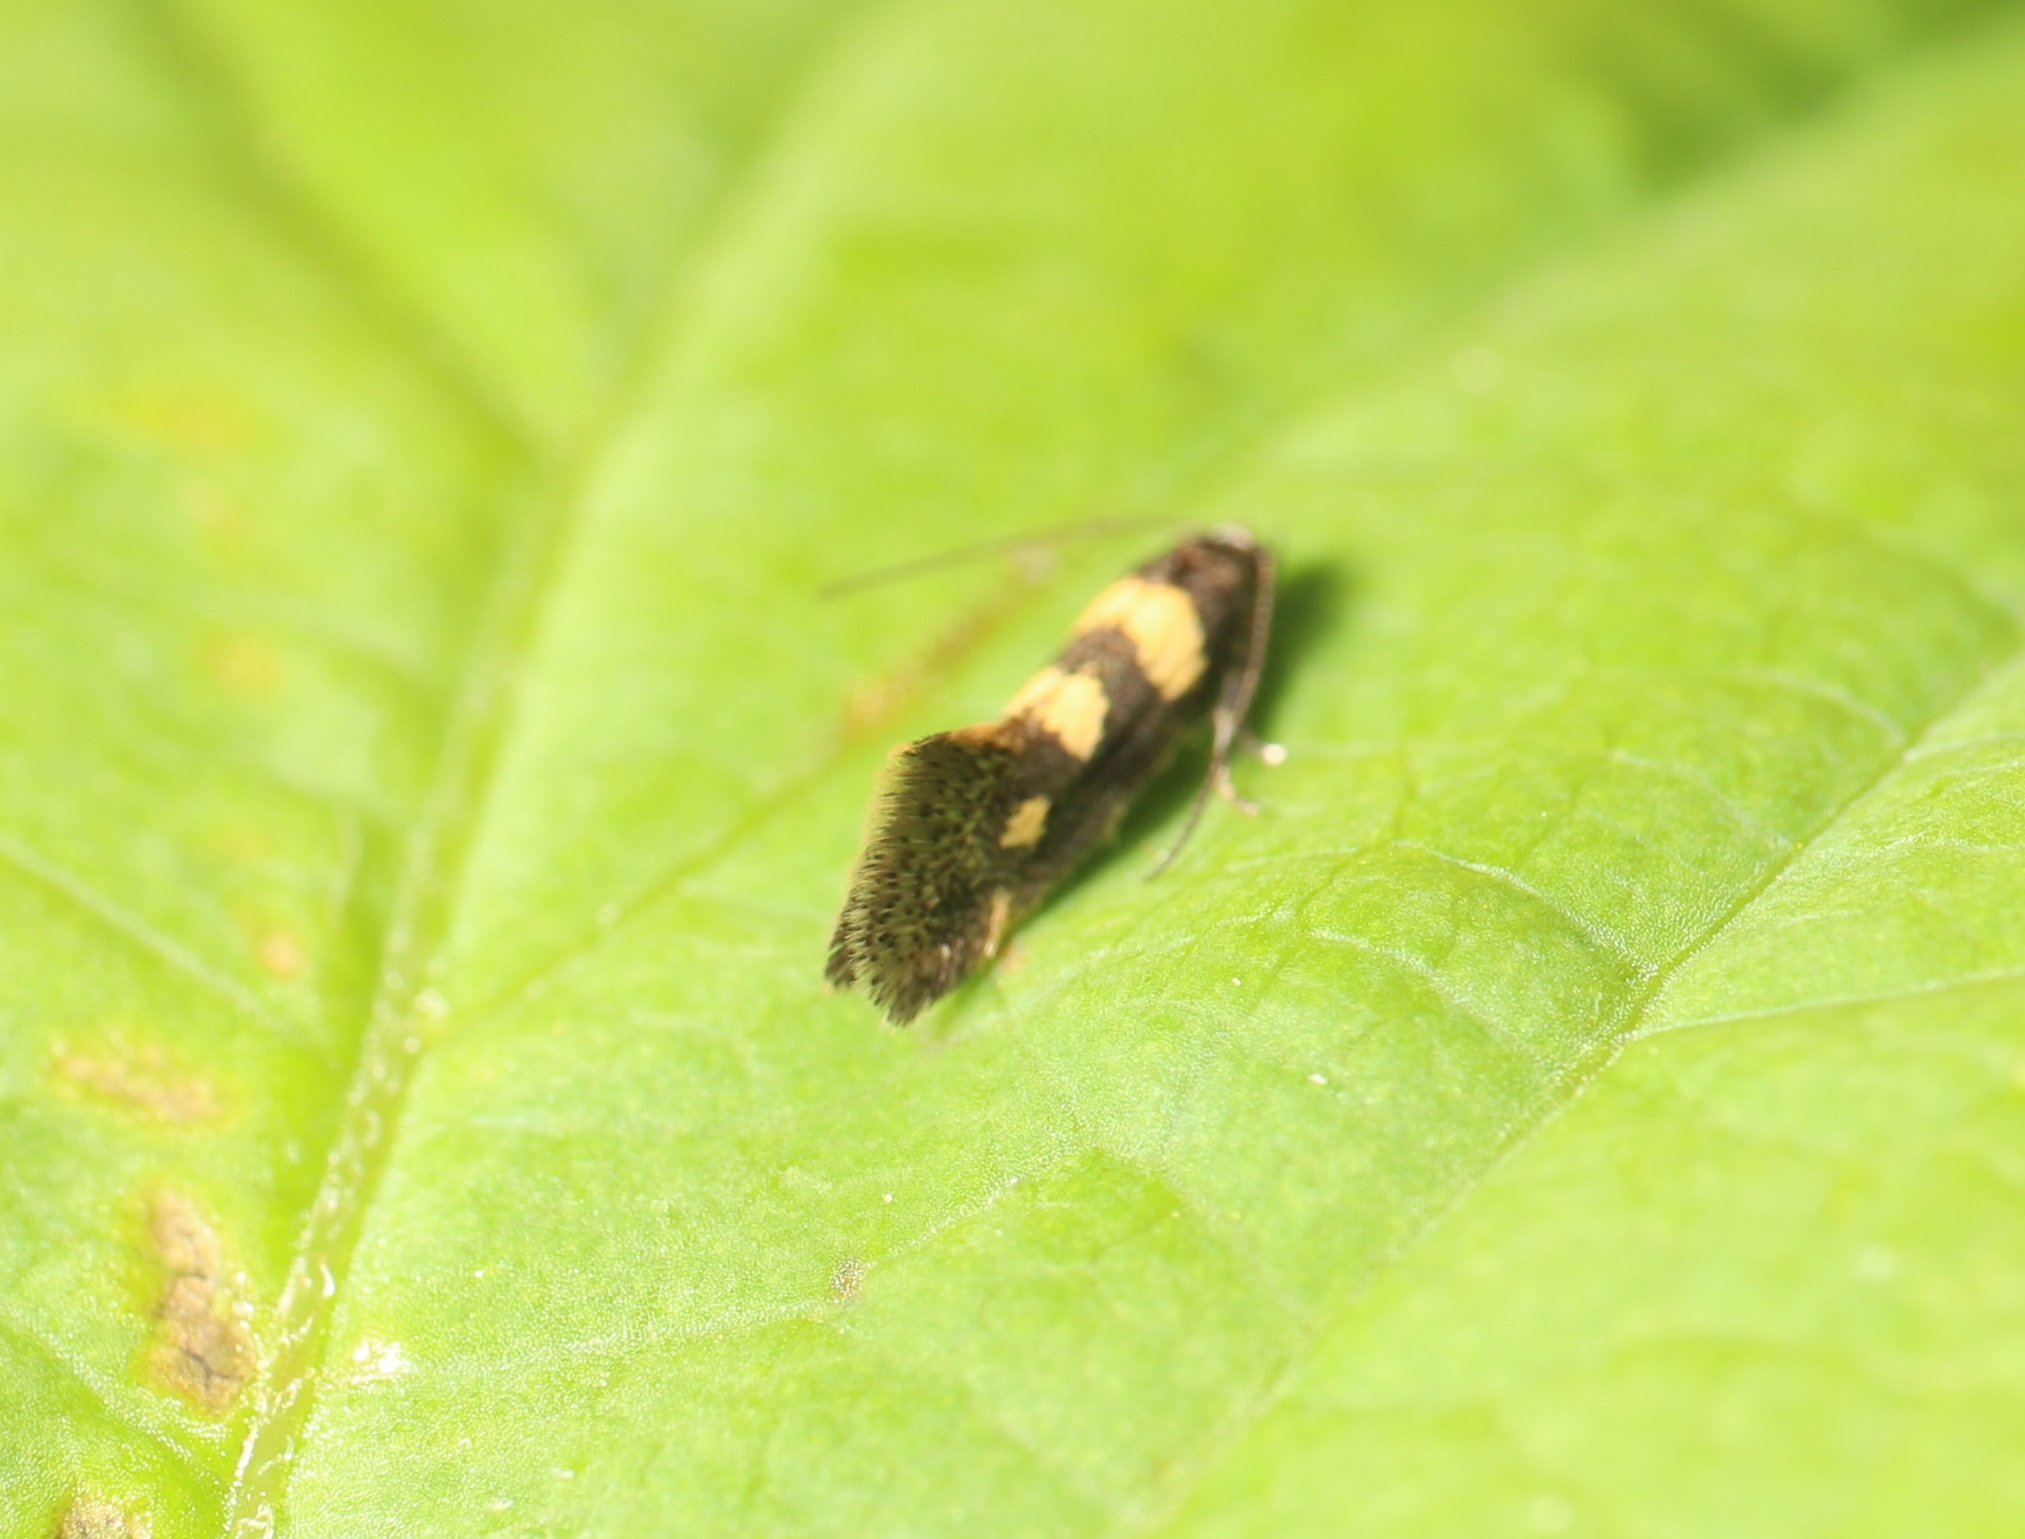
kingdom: Animalia
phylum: Arthropoda
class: Insecta
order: Lepidoptera
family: Gelechiidae
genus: Chrysoesthia
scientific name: Chrysoesthia sexguttella
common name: Moth
